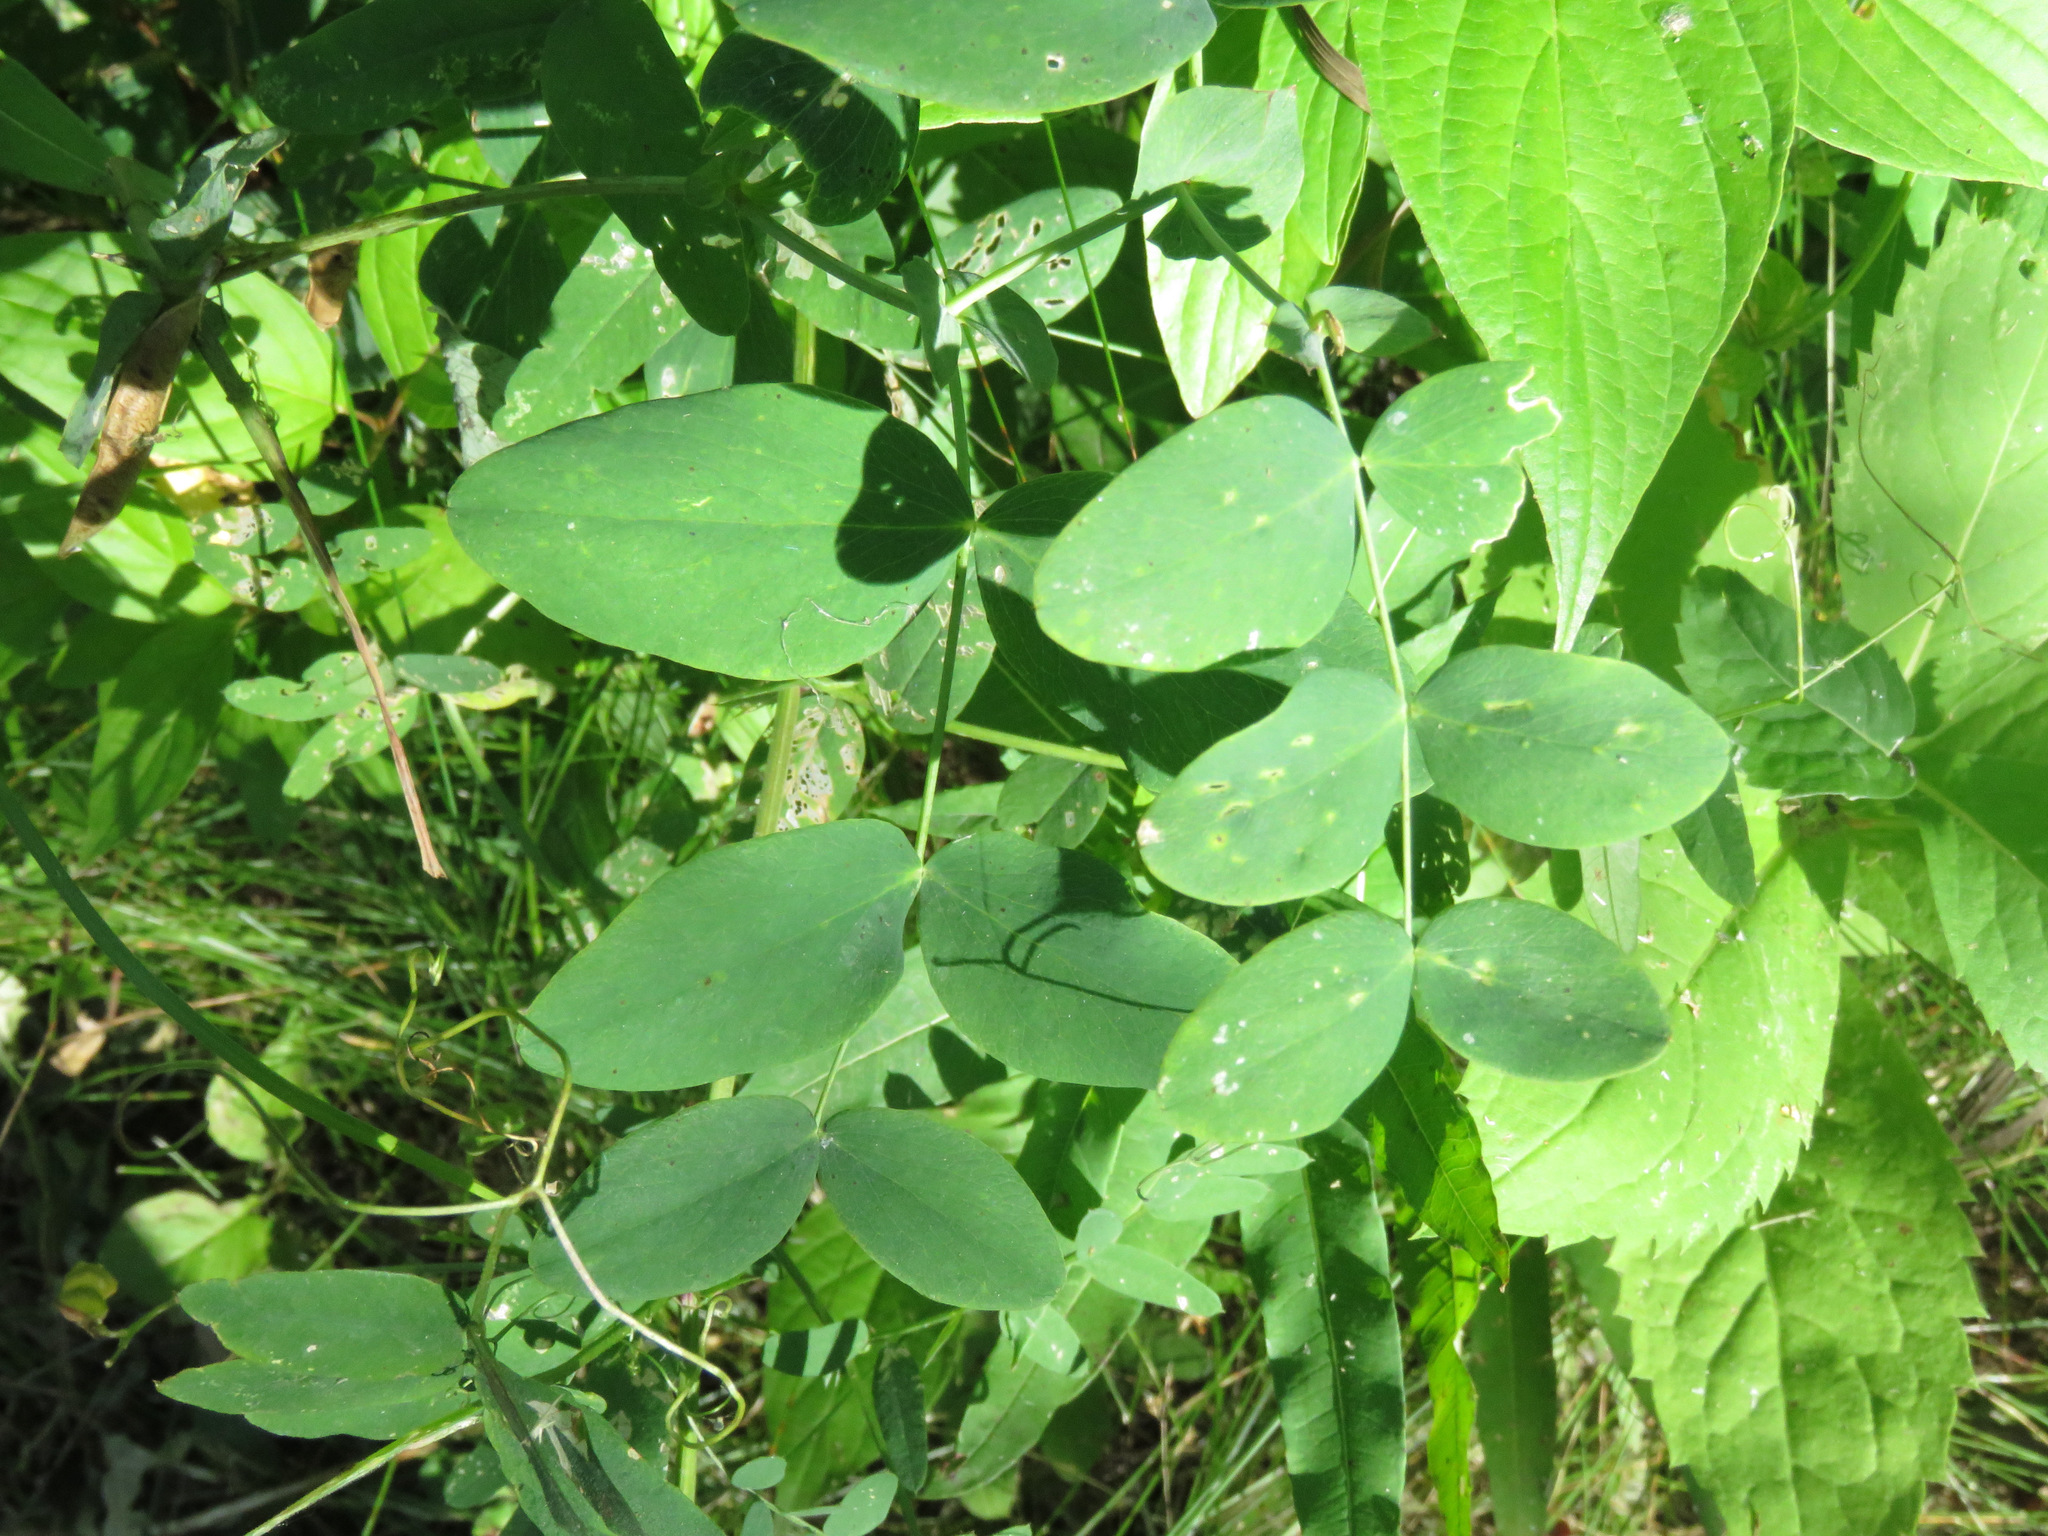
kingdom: Plantae
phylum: Tracheophyta
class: Magnoliopsida
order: Fabales
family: Fabaceae
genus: Lathyrus
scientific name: Lathyrus ochroleucus
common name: Pale vetchling
